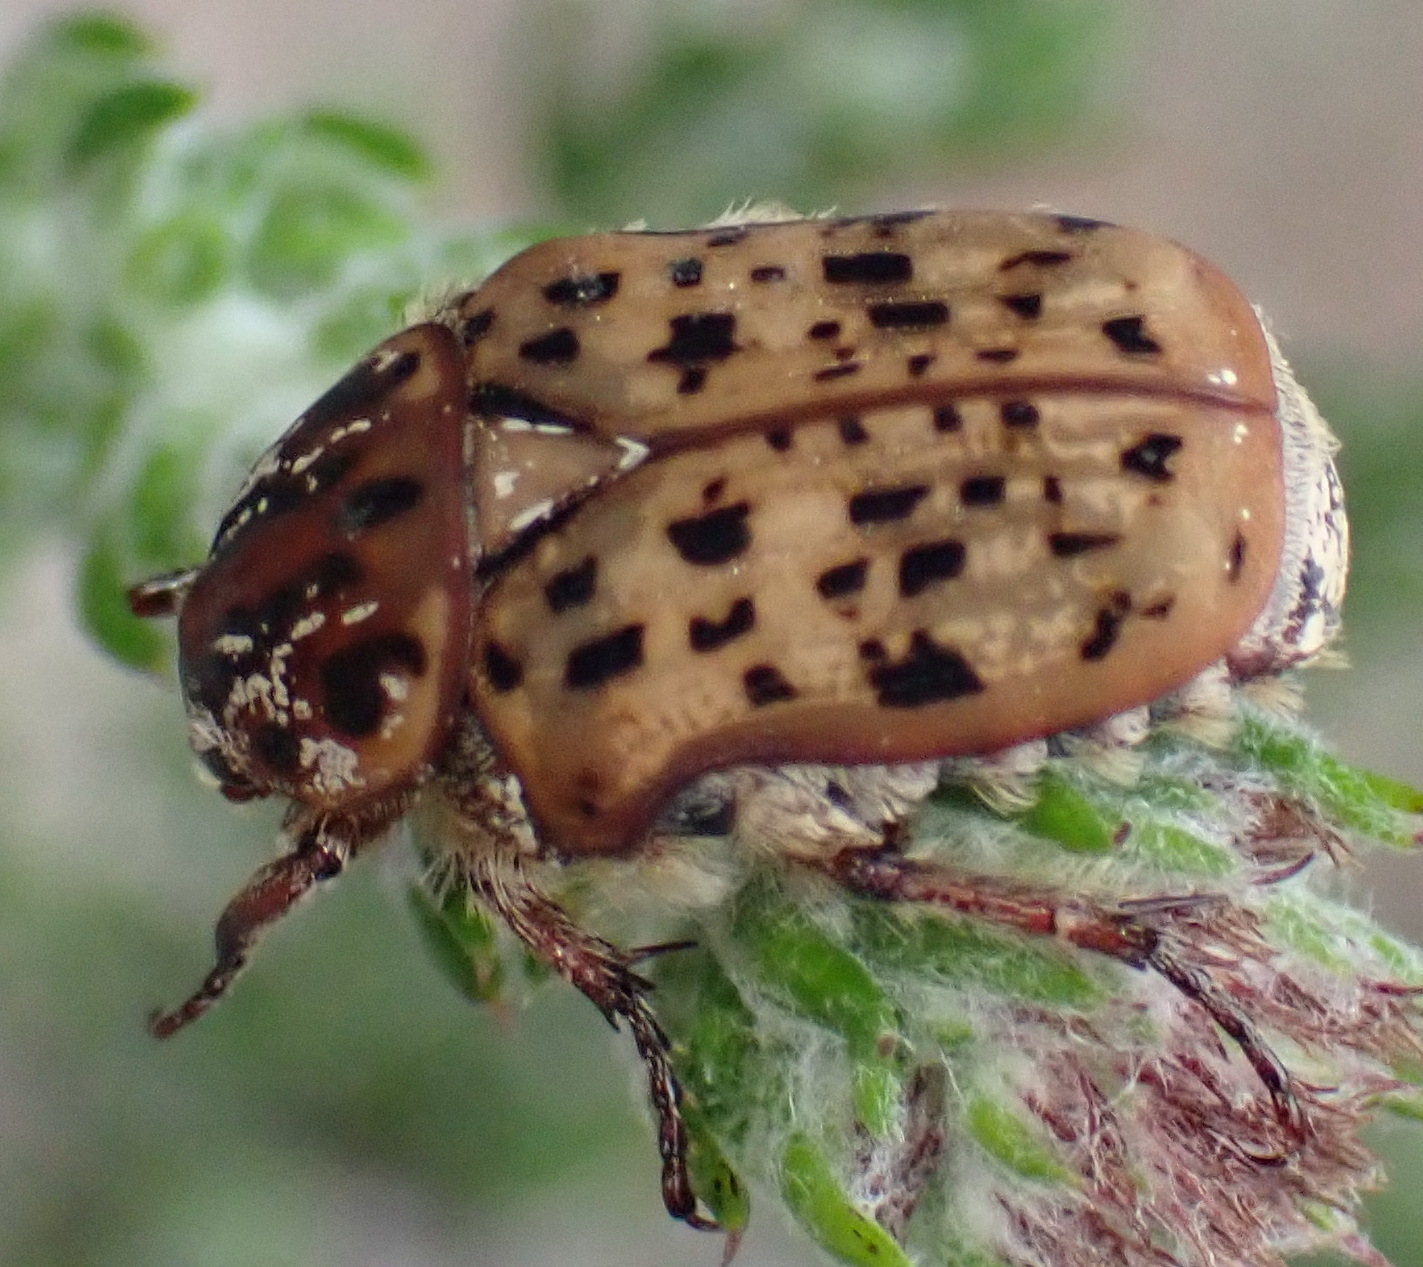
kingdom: Animalia
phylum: Arthropoda
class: Insecta
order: Coleoptera
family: Scarabaeidae
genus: Atrichelaphinis
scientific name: Atrichelaphinis tigrina
